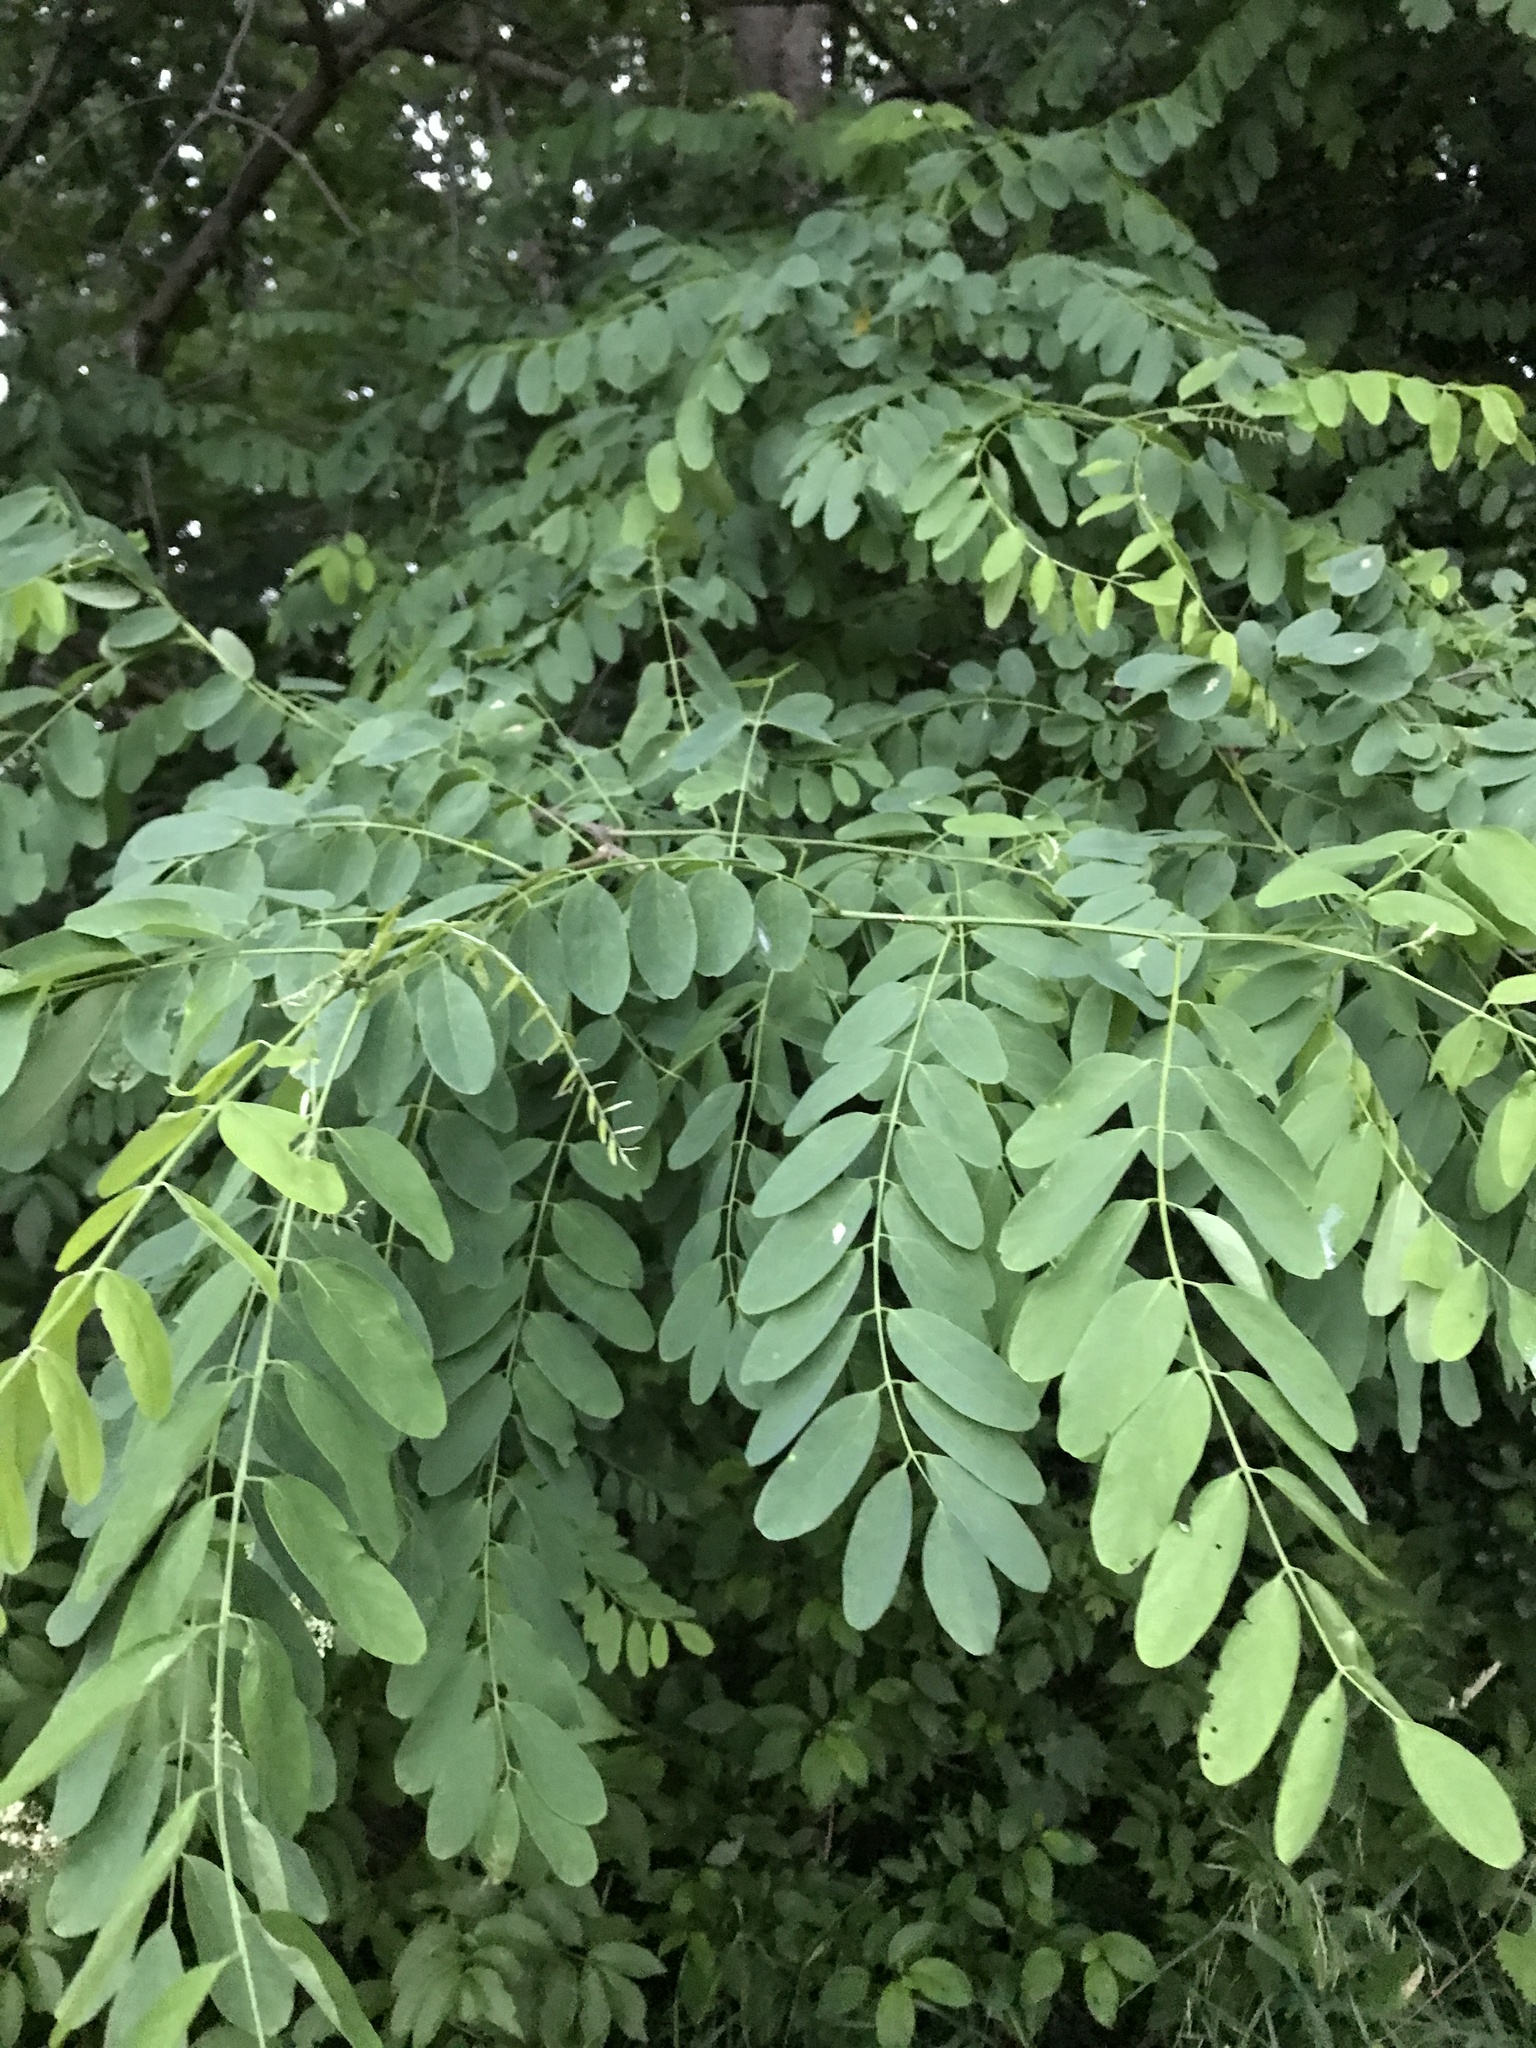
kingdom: Plantae
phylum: Tracheophyta
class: Magnoliopsida
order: Fabales
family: Fabaceae
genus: Robinia
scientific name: Robinia pseudoacacia
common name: Black locust
